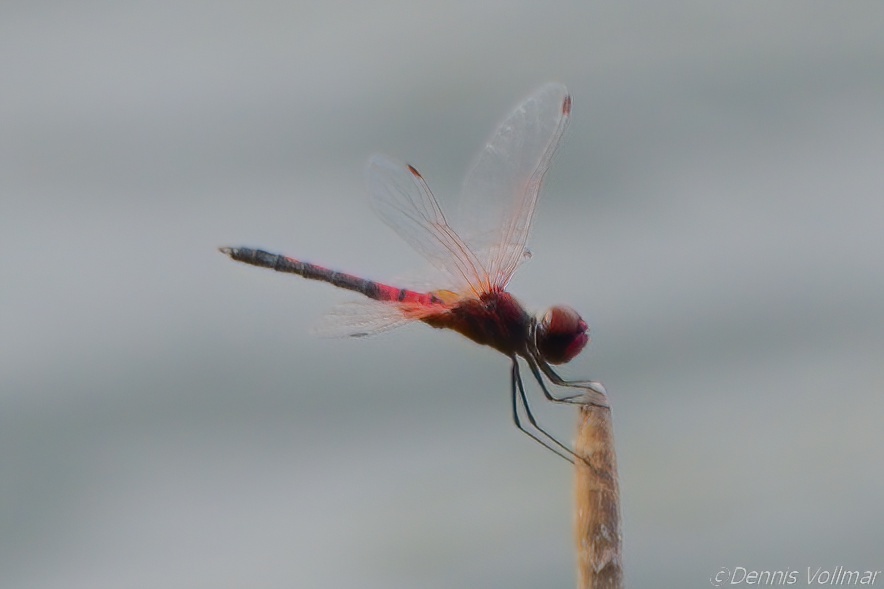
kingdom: Animalia
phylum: Arthropoda
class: Insecta
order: Odonata
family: Libellulidae
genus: Celithemis
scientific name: Celithemis bertha
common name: Red-veined pennant
